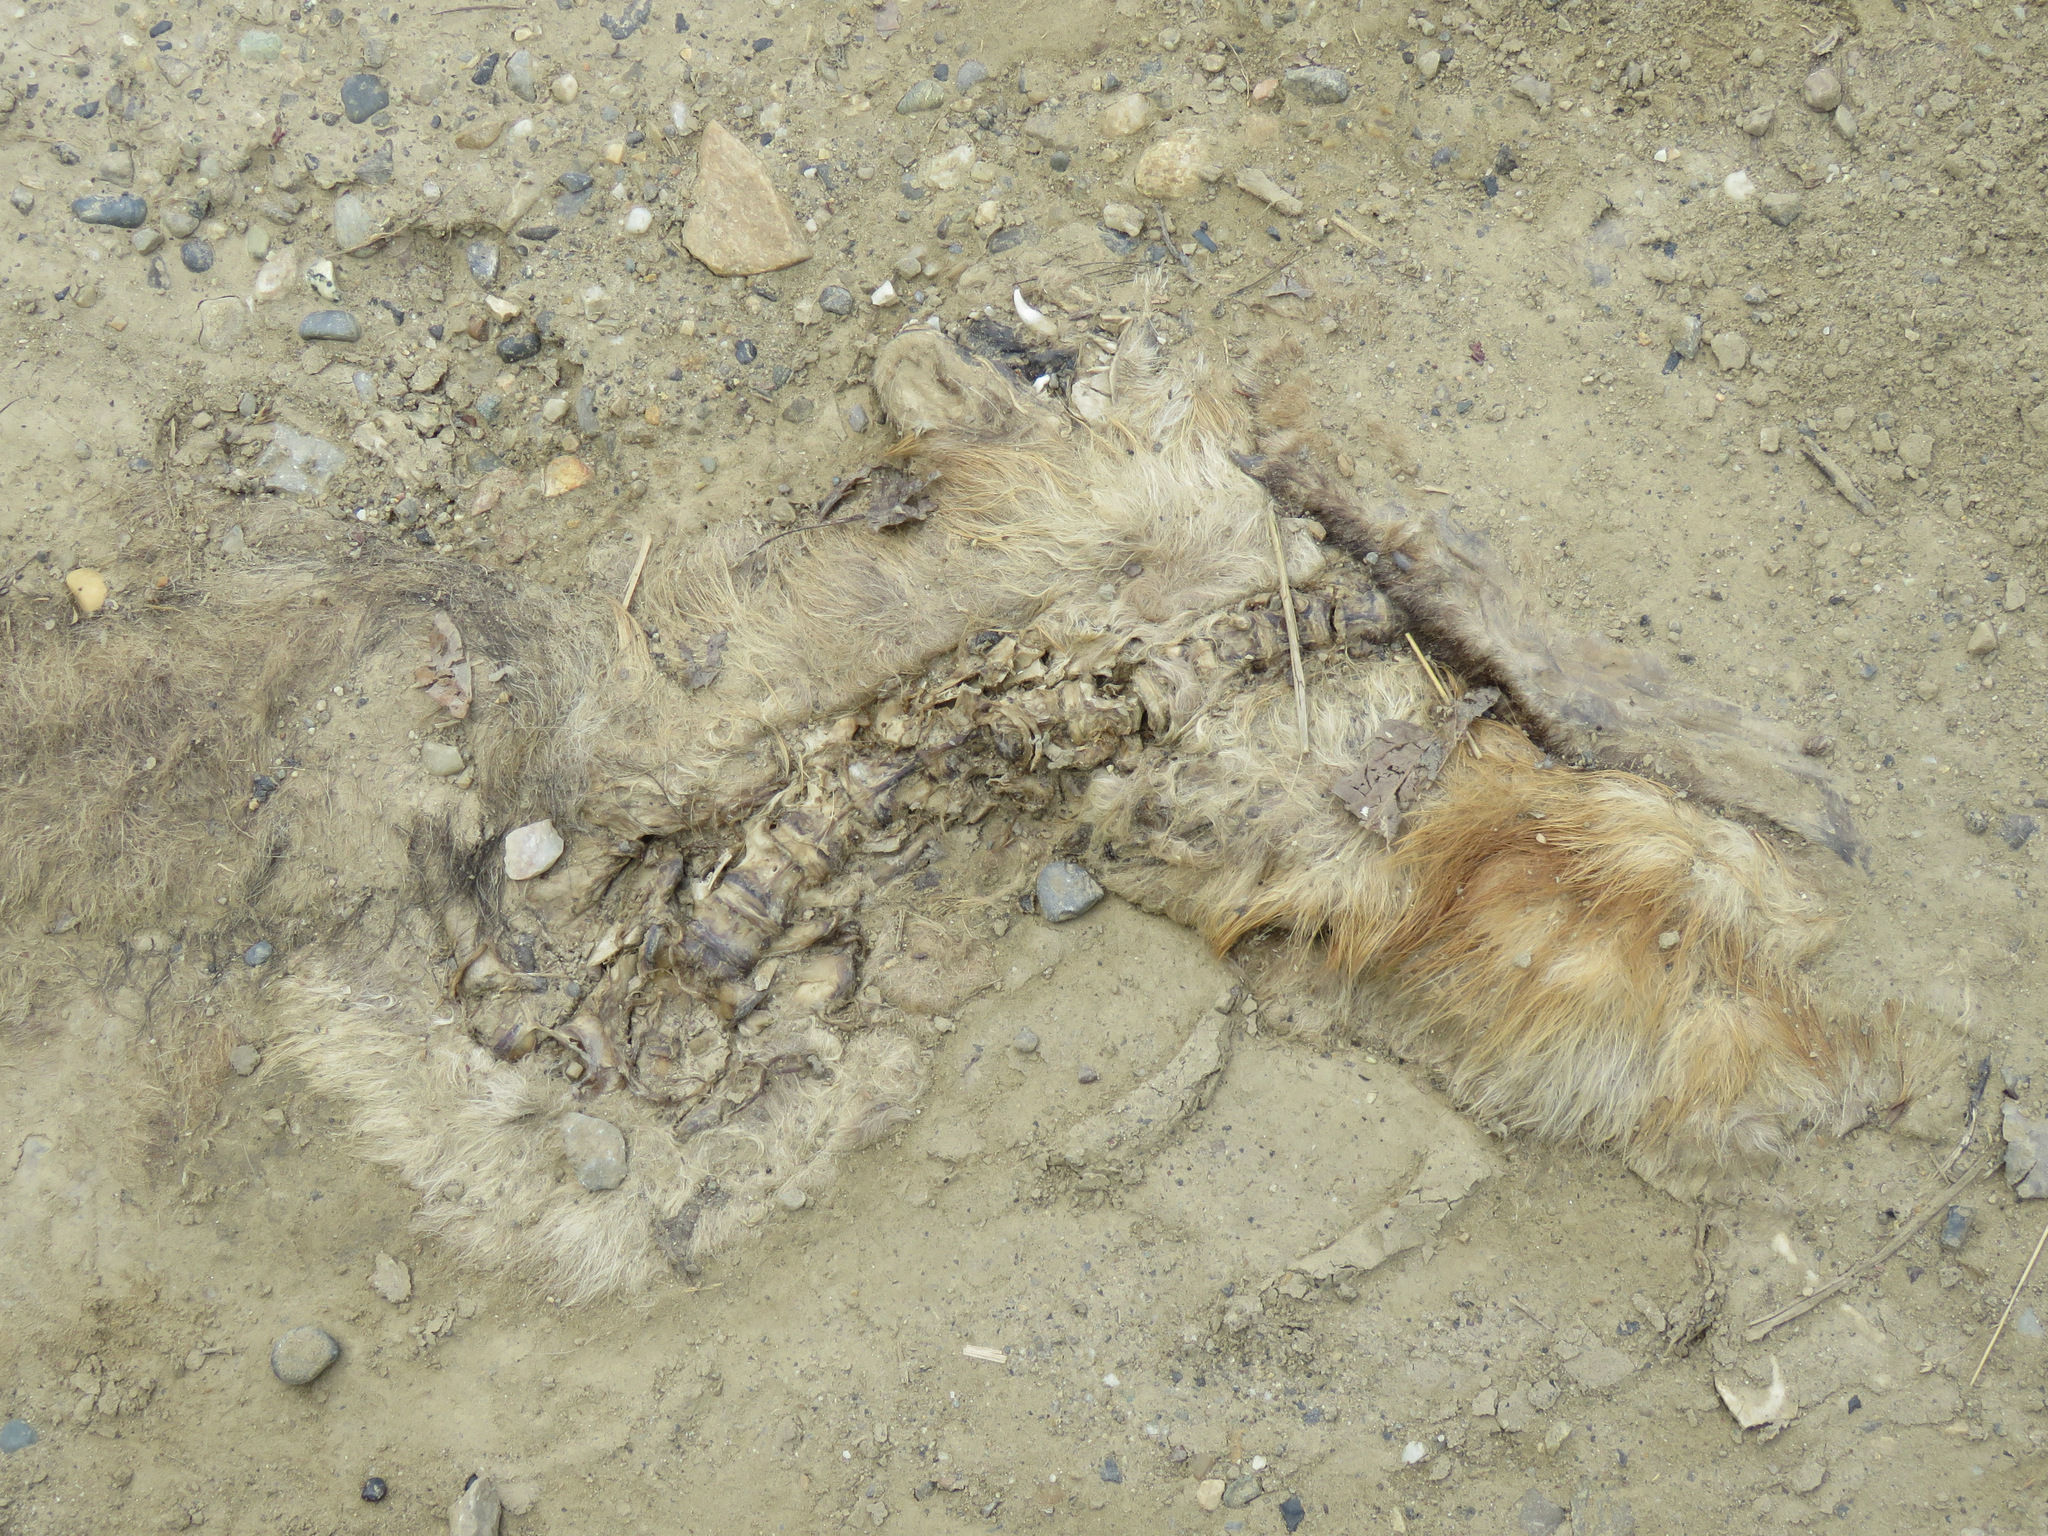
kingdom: Animalia
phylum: Chordata
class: Mammalia
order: Carnivora
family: Canidae
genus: Vulpes
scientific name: Vulpes vulpes
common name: Red fox
